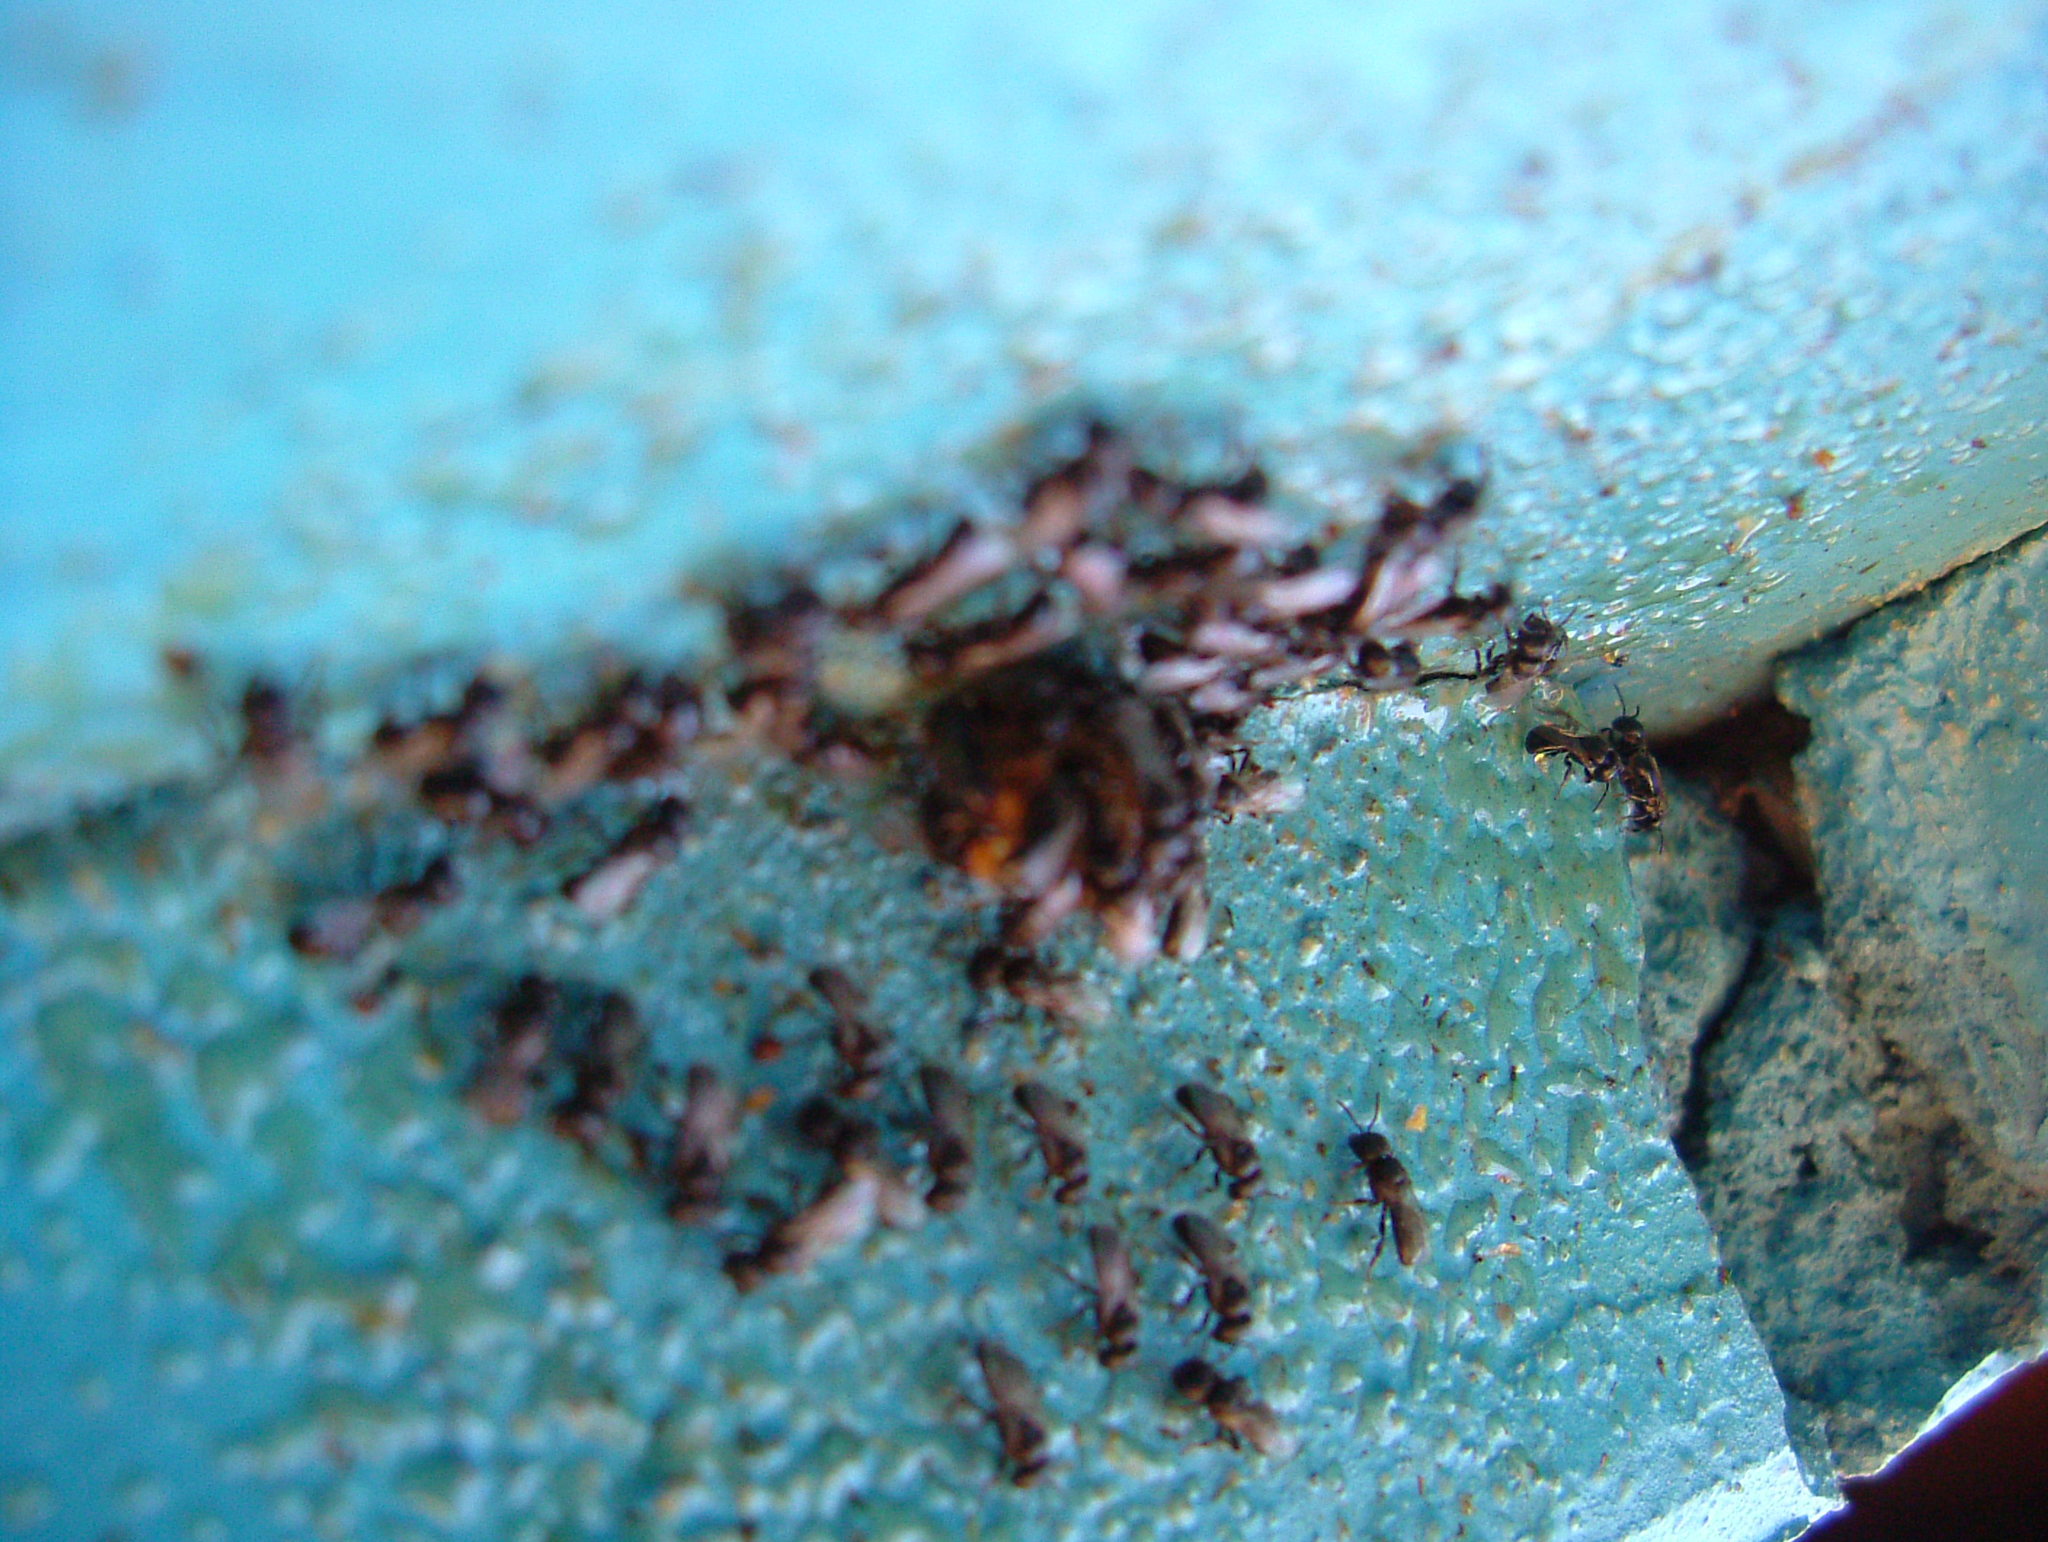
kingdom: Animalia
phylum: Arthropoda
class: Insecta
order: Hymenoptera
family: Apidae
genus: Cleptotrigona
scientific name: Cleptotrigona cubiceps
